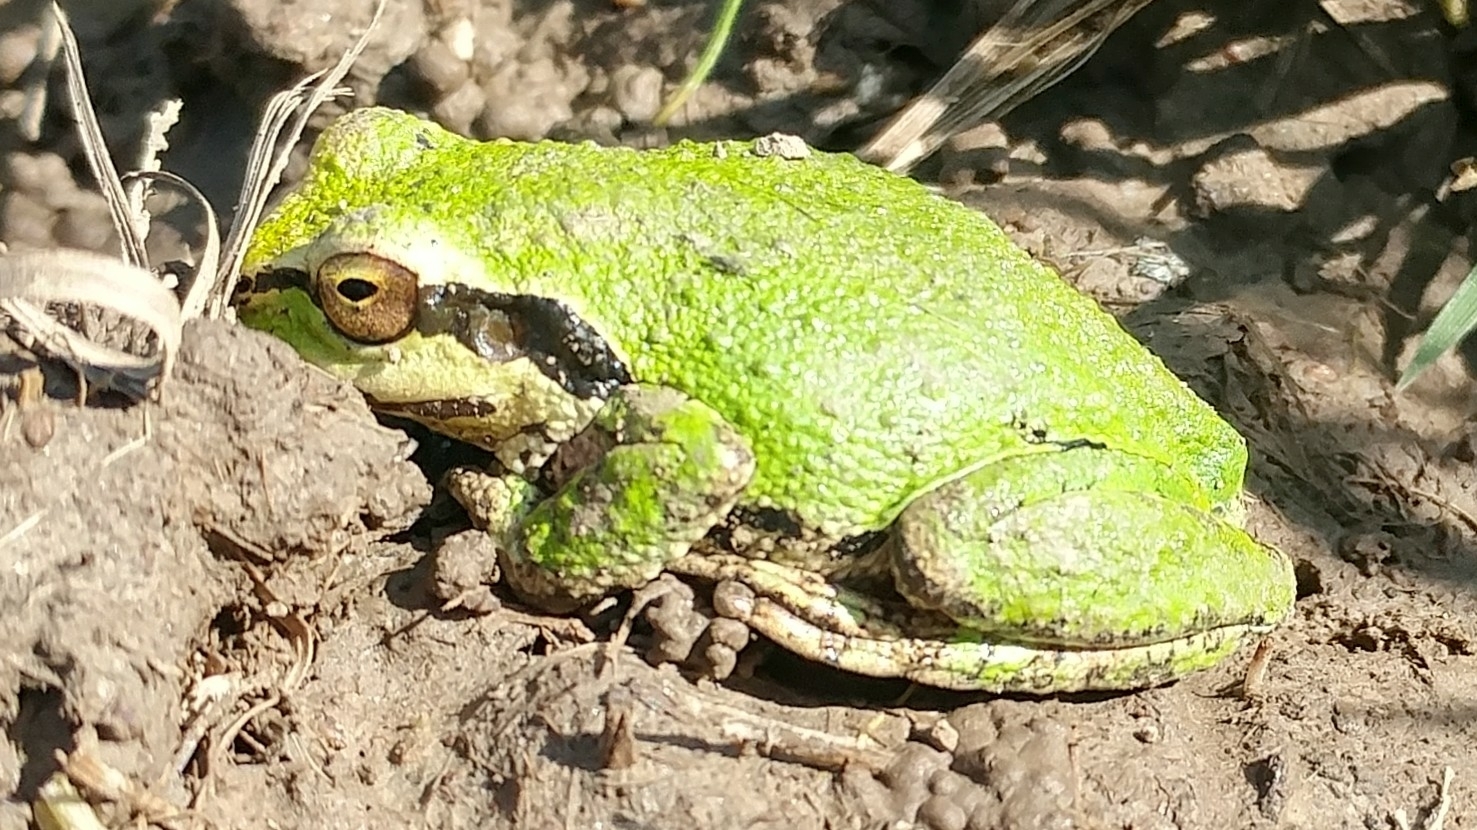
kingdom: Animalia
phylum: Chordata
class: Amphibia
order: Anura
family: Hylidae
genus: Pseudacris
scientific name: Pseudacris regilla
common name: Pacific chorus frog
